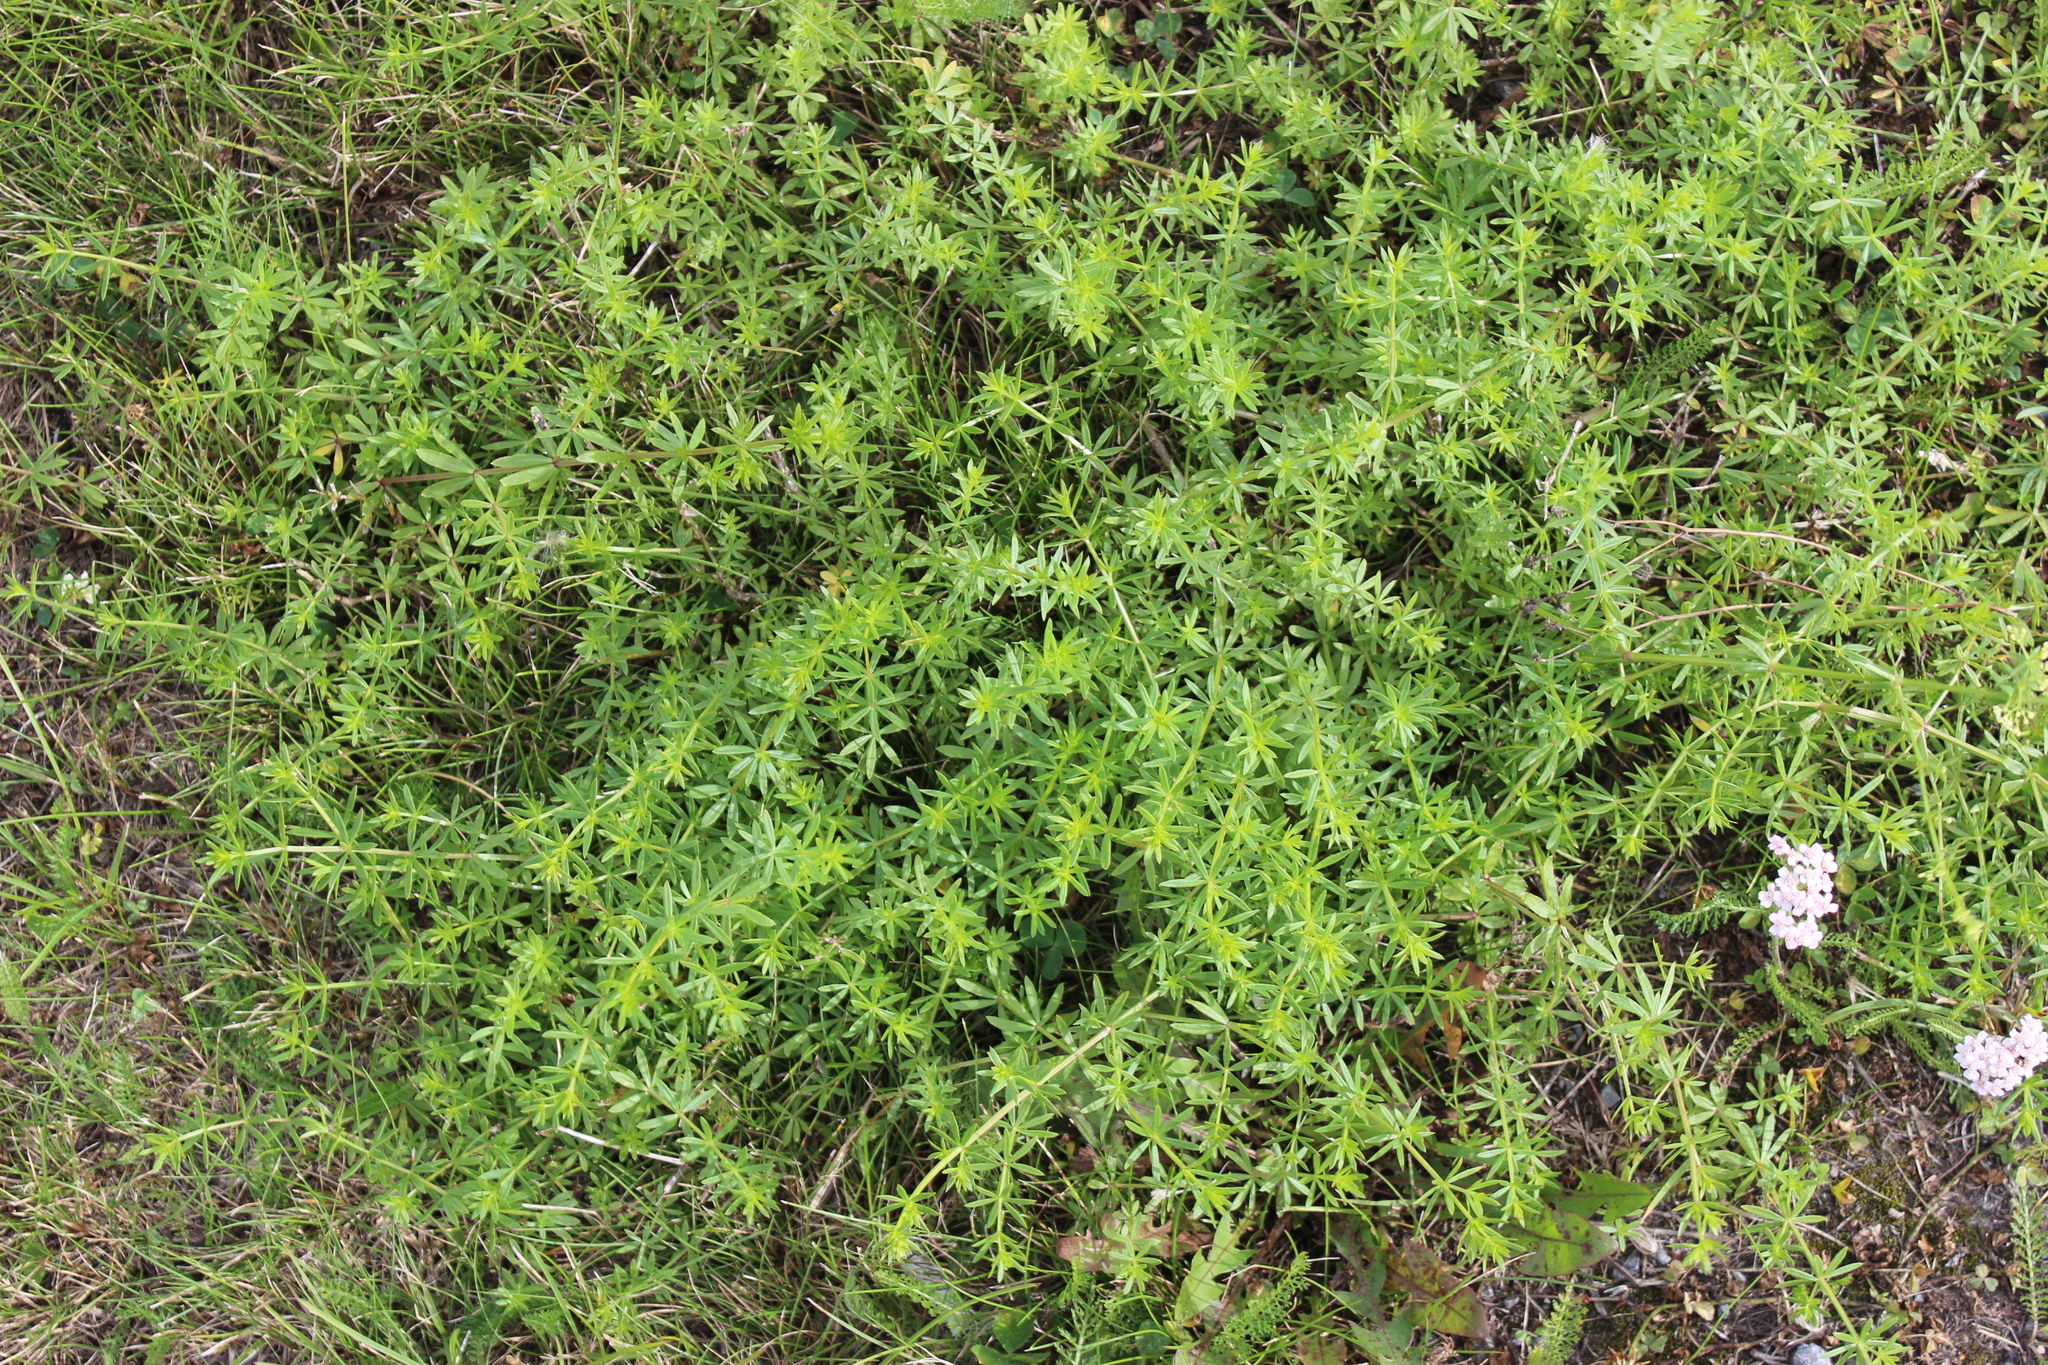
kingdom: Plantae
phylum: Tracheophyta
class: Magnoliopsida
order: Gentianales
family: Rubiaceae
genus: Galium
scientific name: Galium mollugo
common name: Hedge bedstraw
